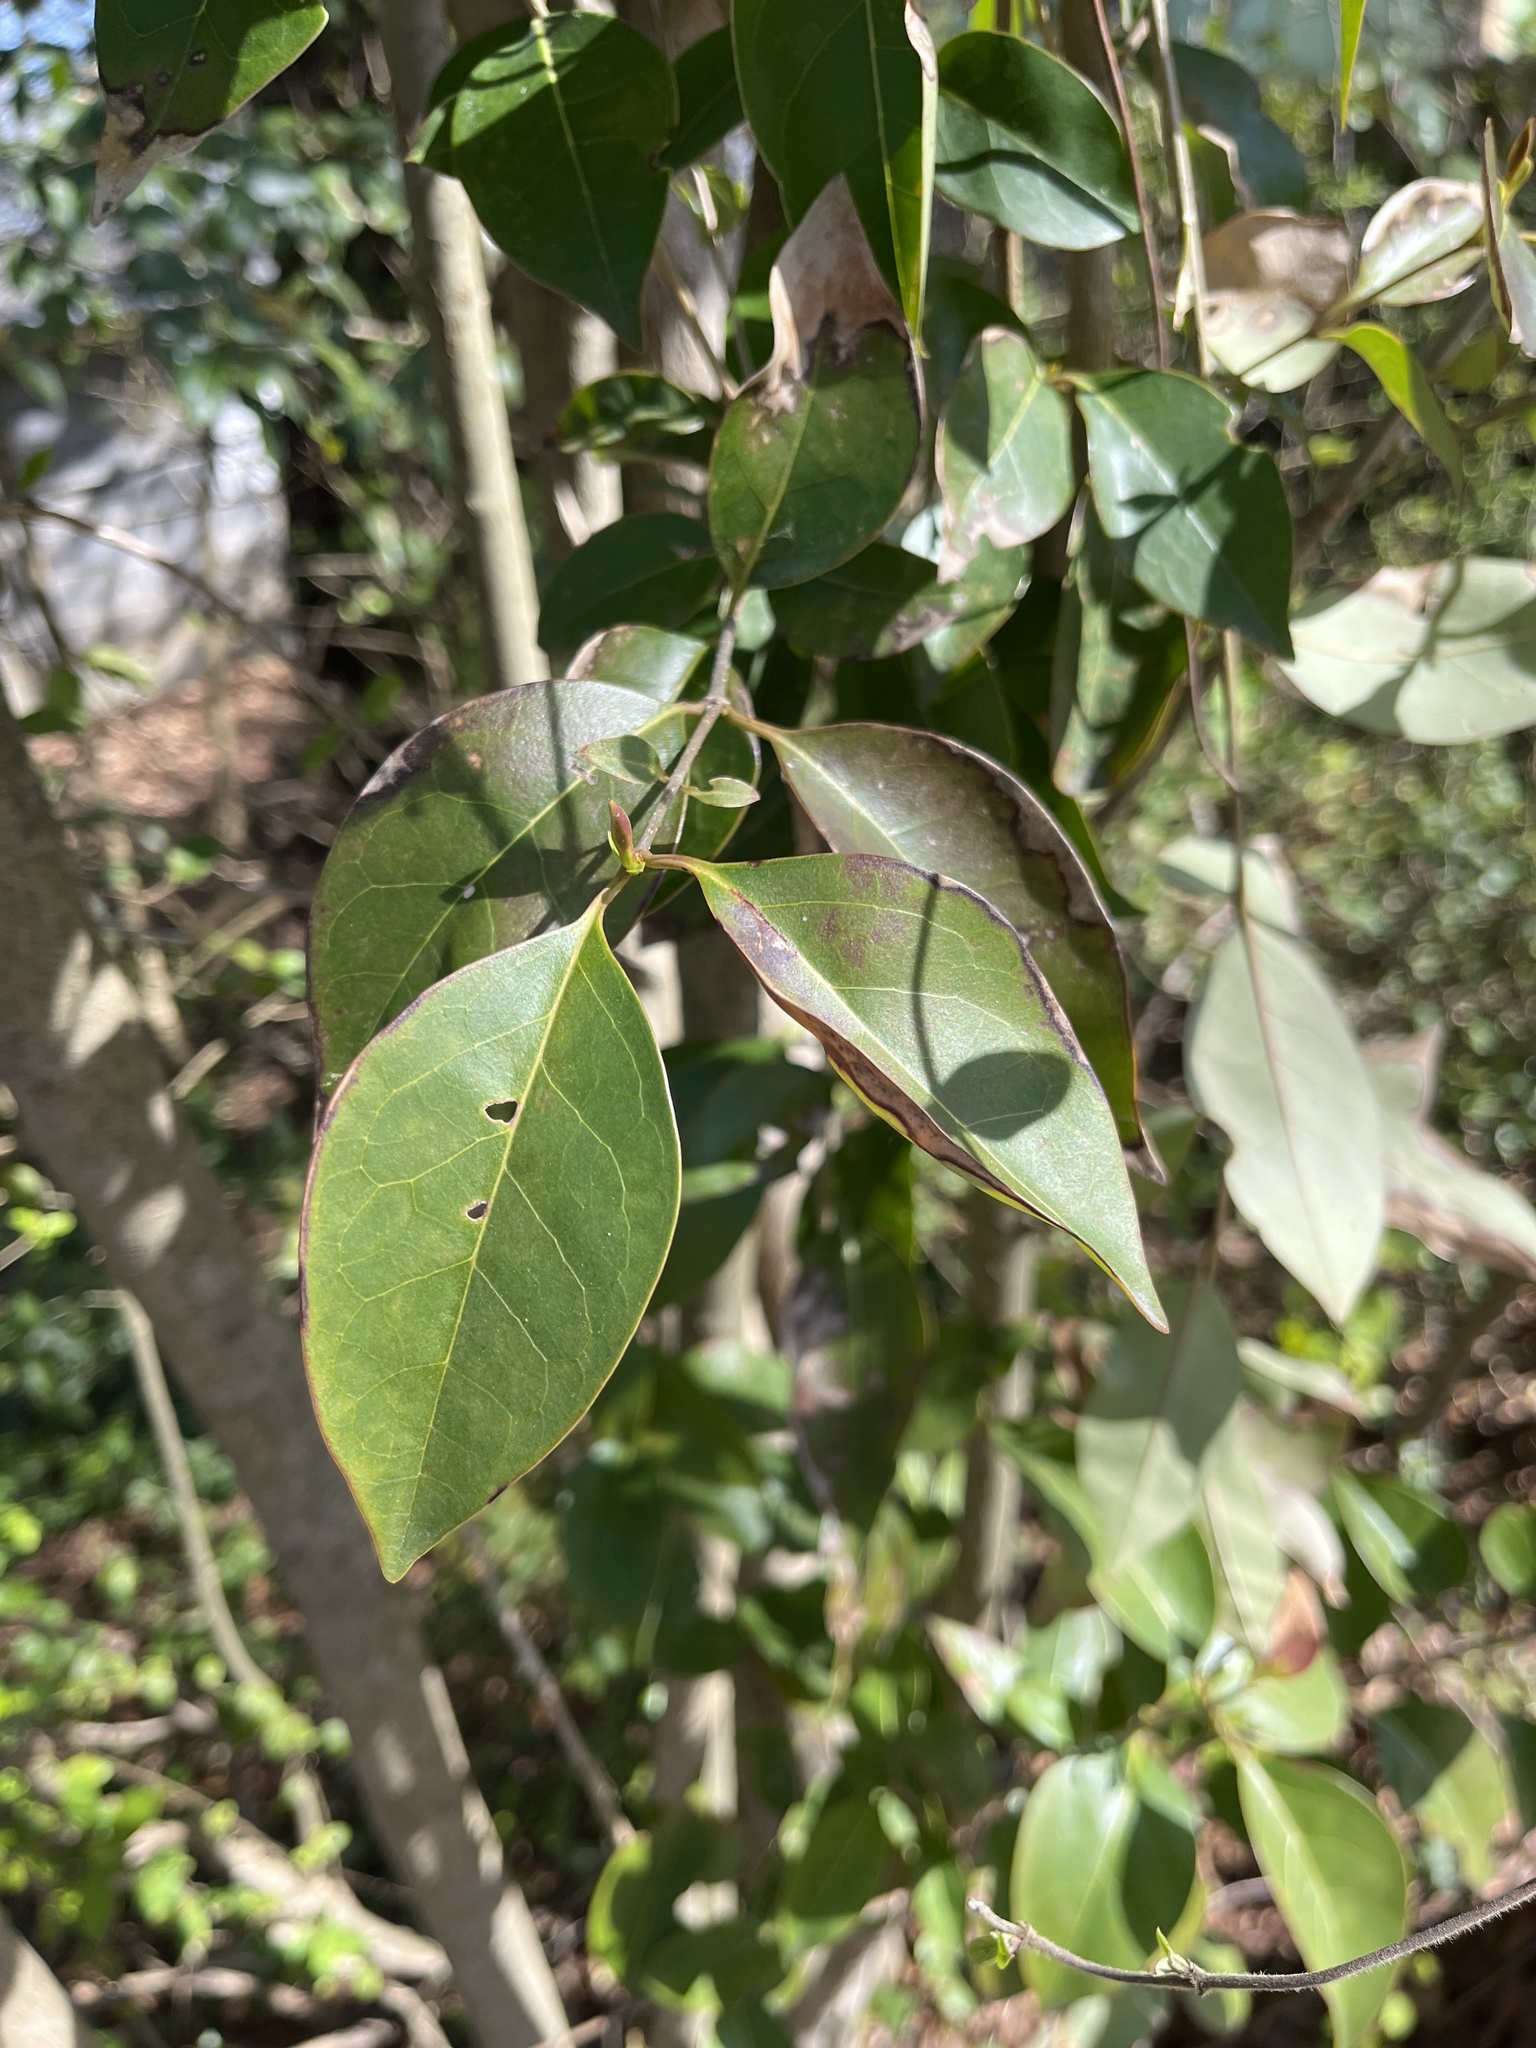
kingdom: Plantae
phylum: Tracheophyta
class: Magnoliopsida
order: Lamiales
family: Oleaceae
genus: Ligustrum
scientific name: Ligustrum lucidum
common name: Glossy privet
